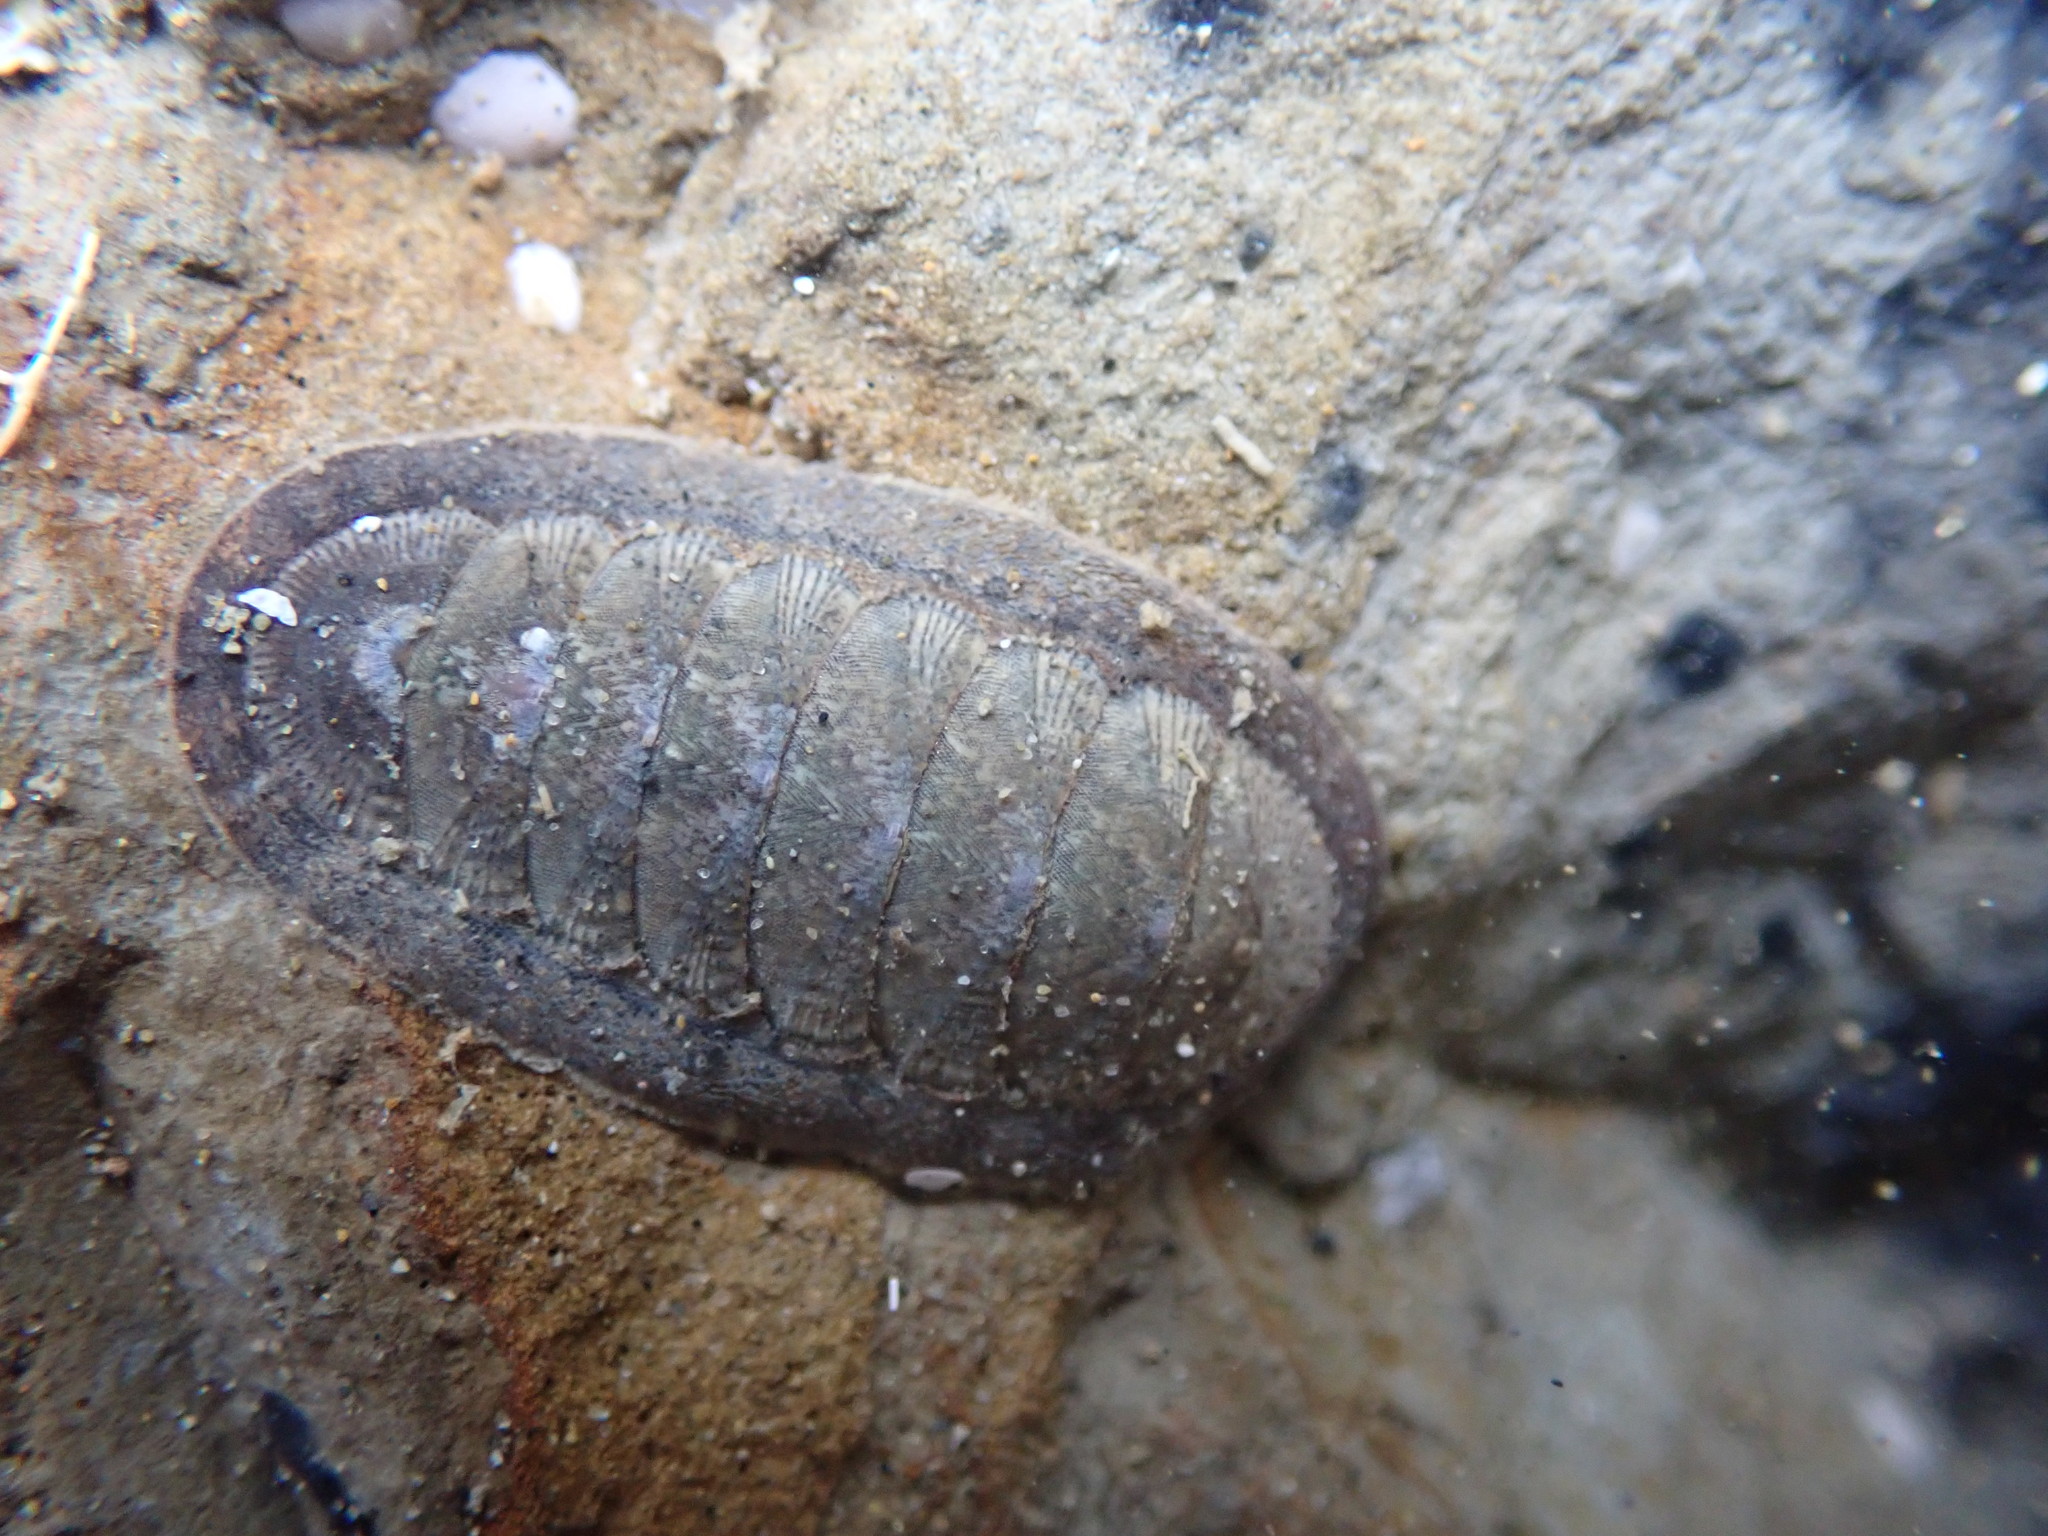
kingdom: Animalia
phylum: Mollusca
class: Polyplacophora
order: Chitonida
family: Ischnochitonidae
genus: Ischnochiton
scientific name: Ischnochiton maorianus
